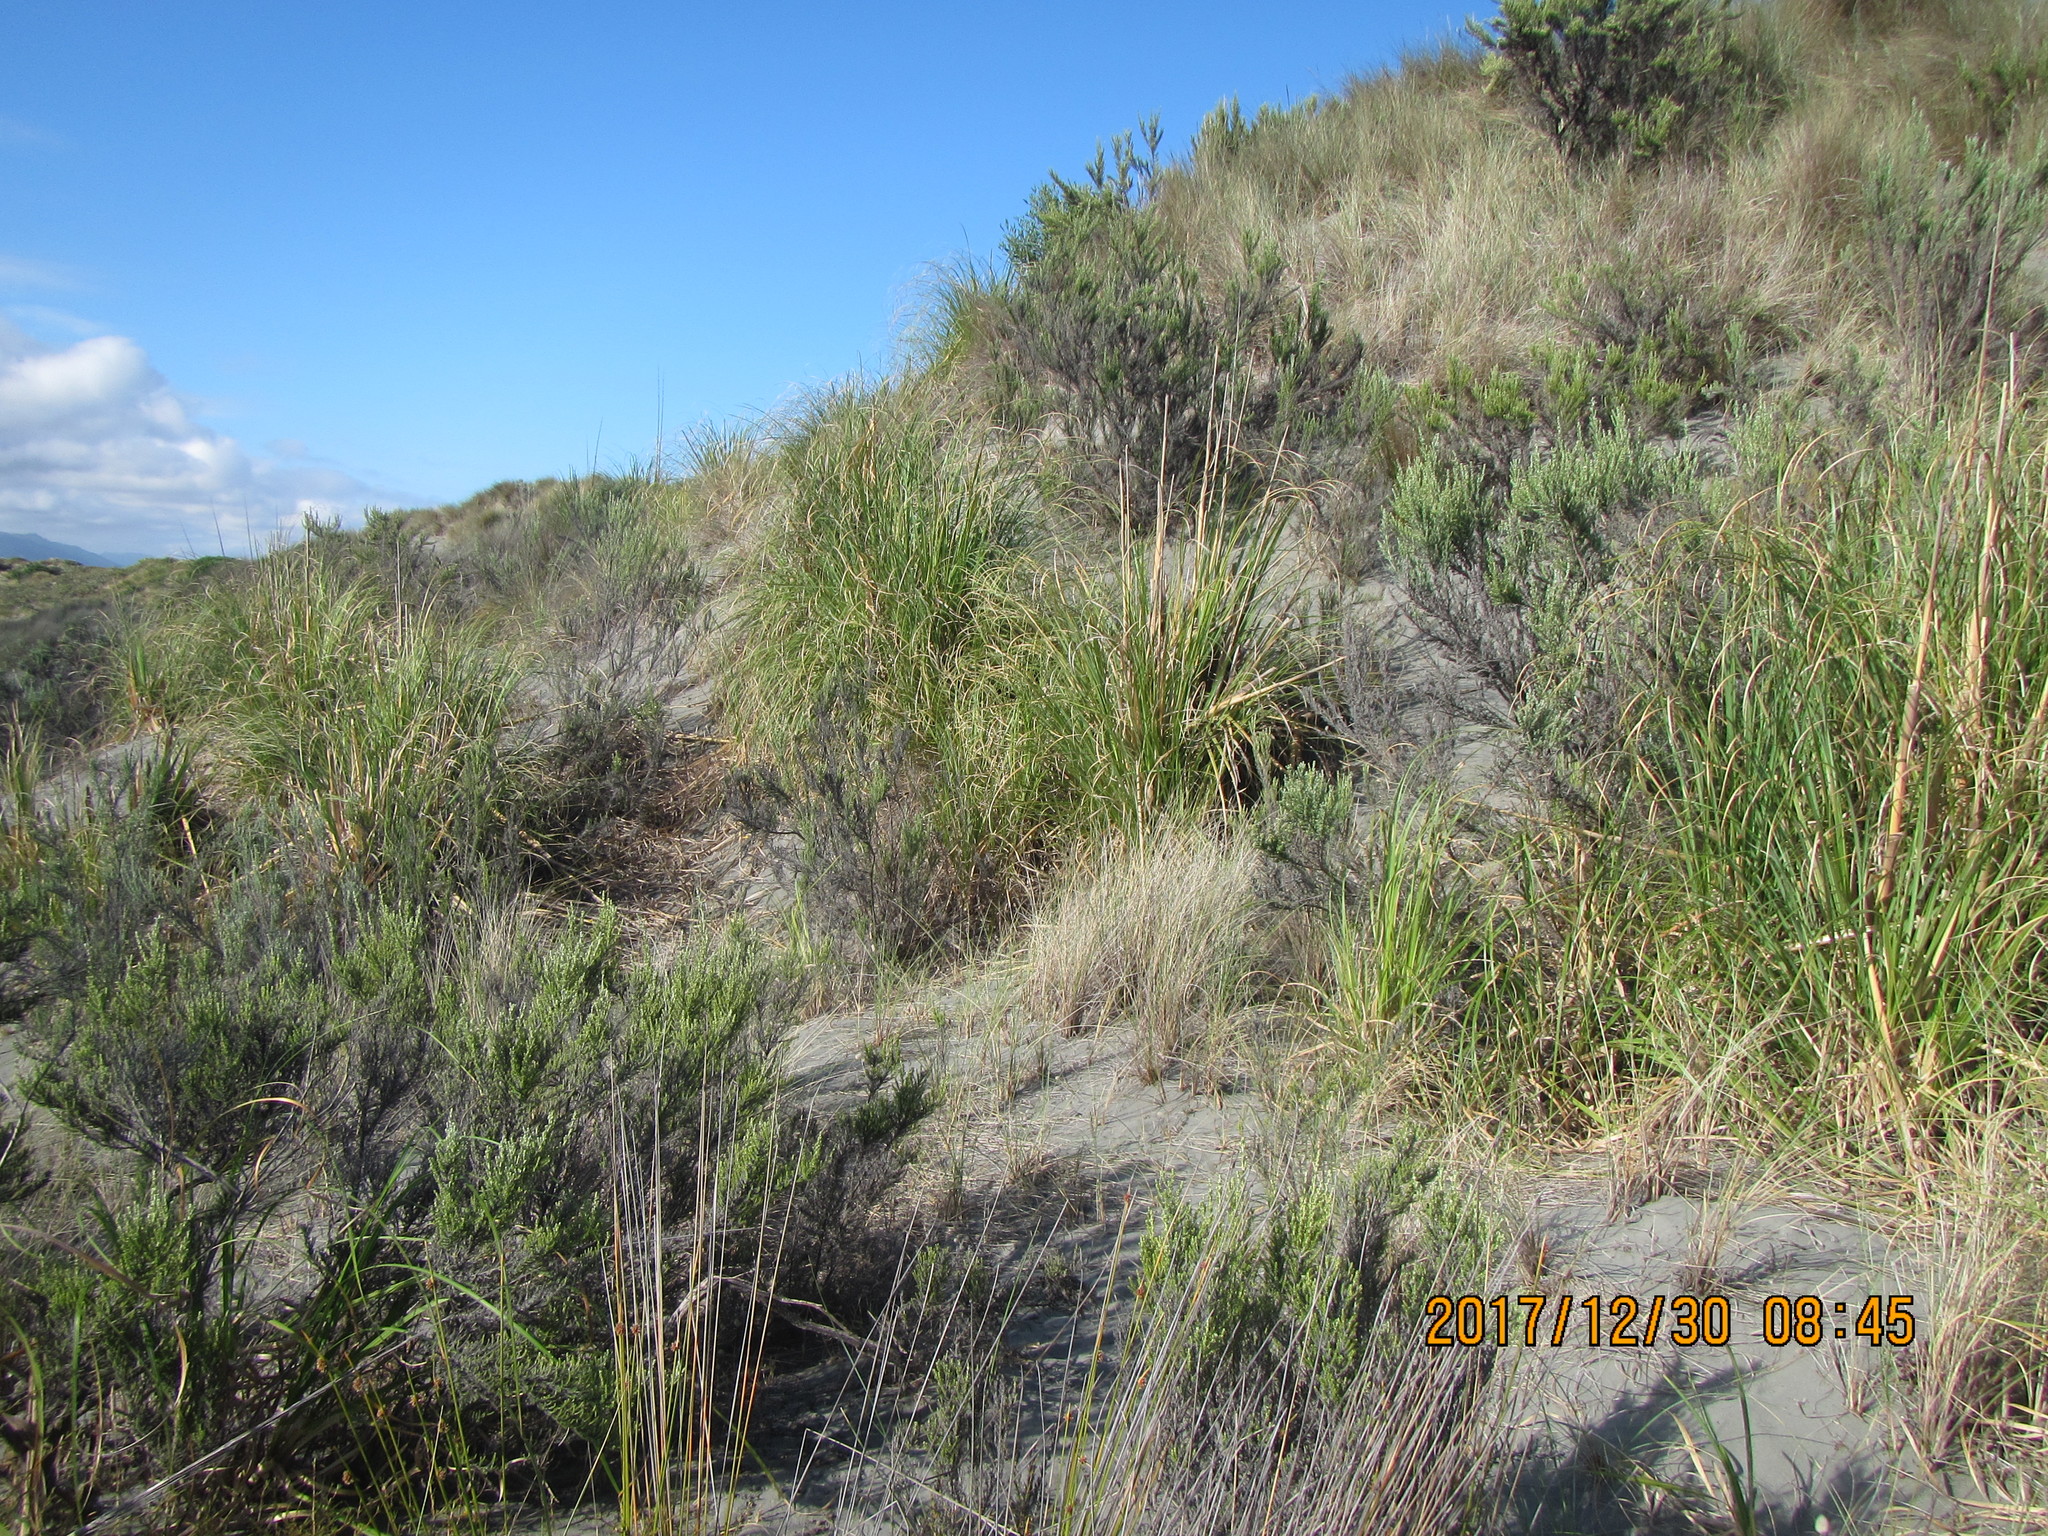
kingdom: Plantae
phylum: Tracheophyta
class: Liliopsida
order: Poales
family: Poaceae
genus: Cortaderia
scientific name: Cortaderia selloana
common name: Uruguayan pampas grass
